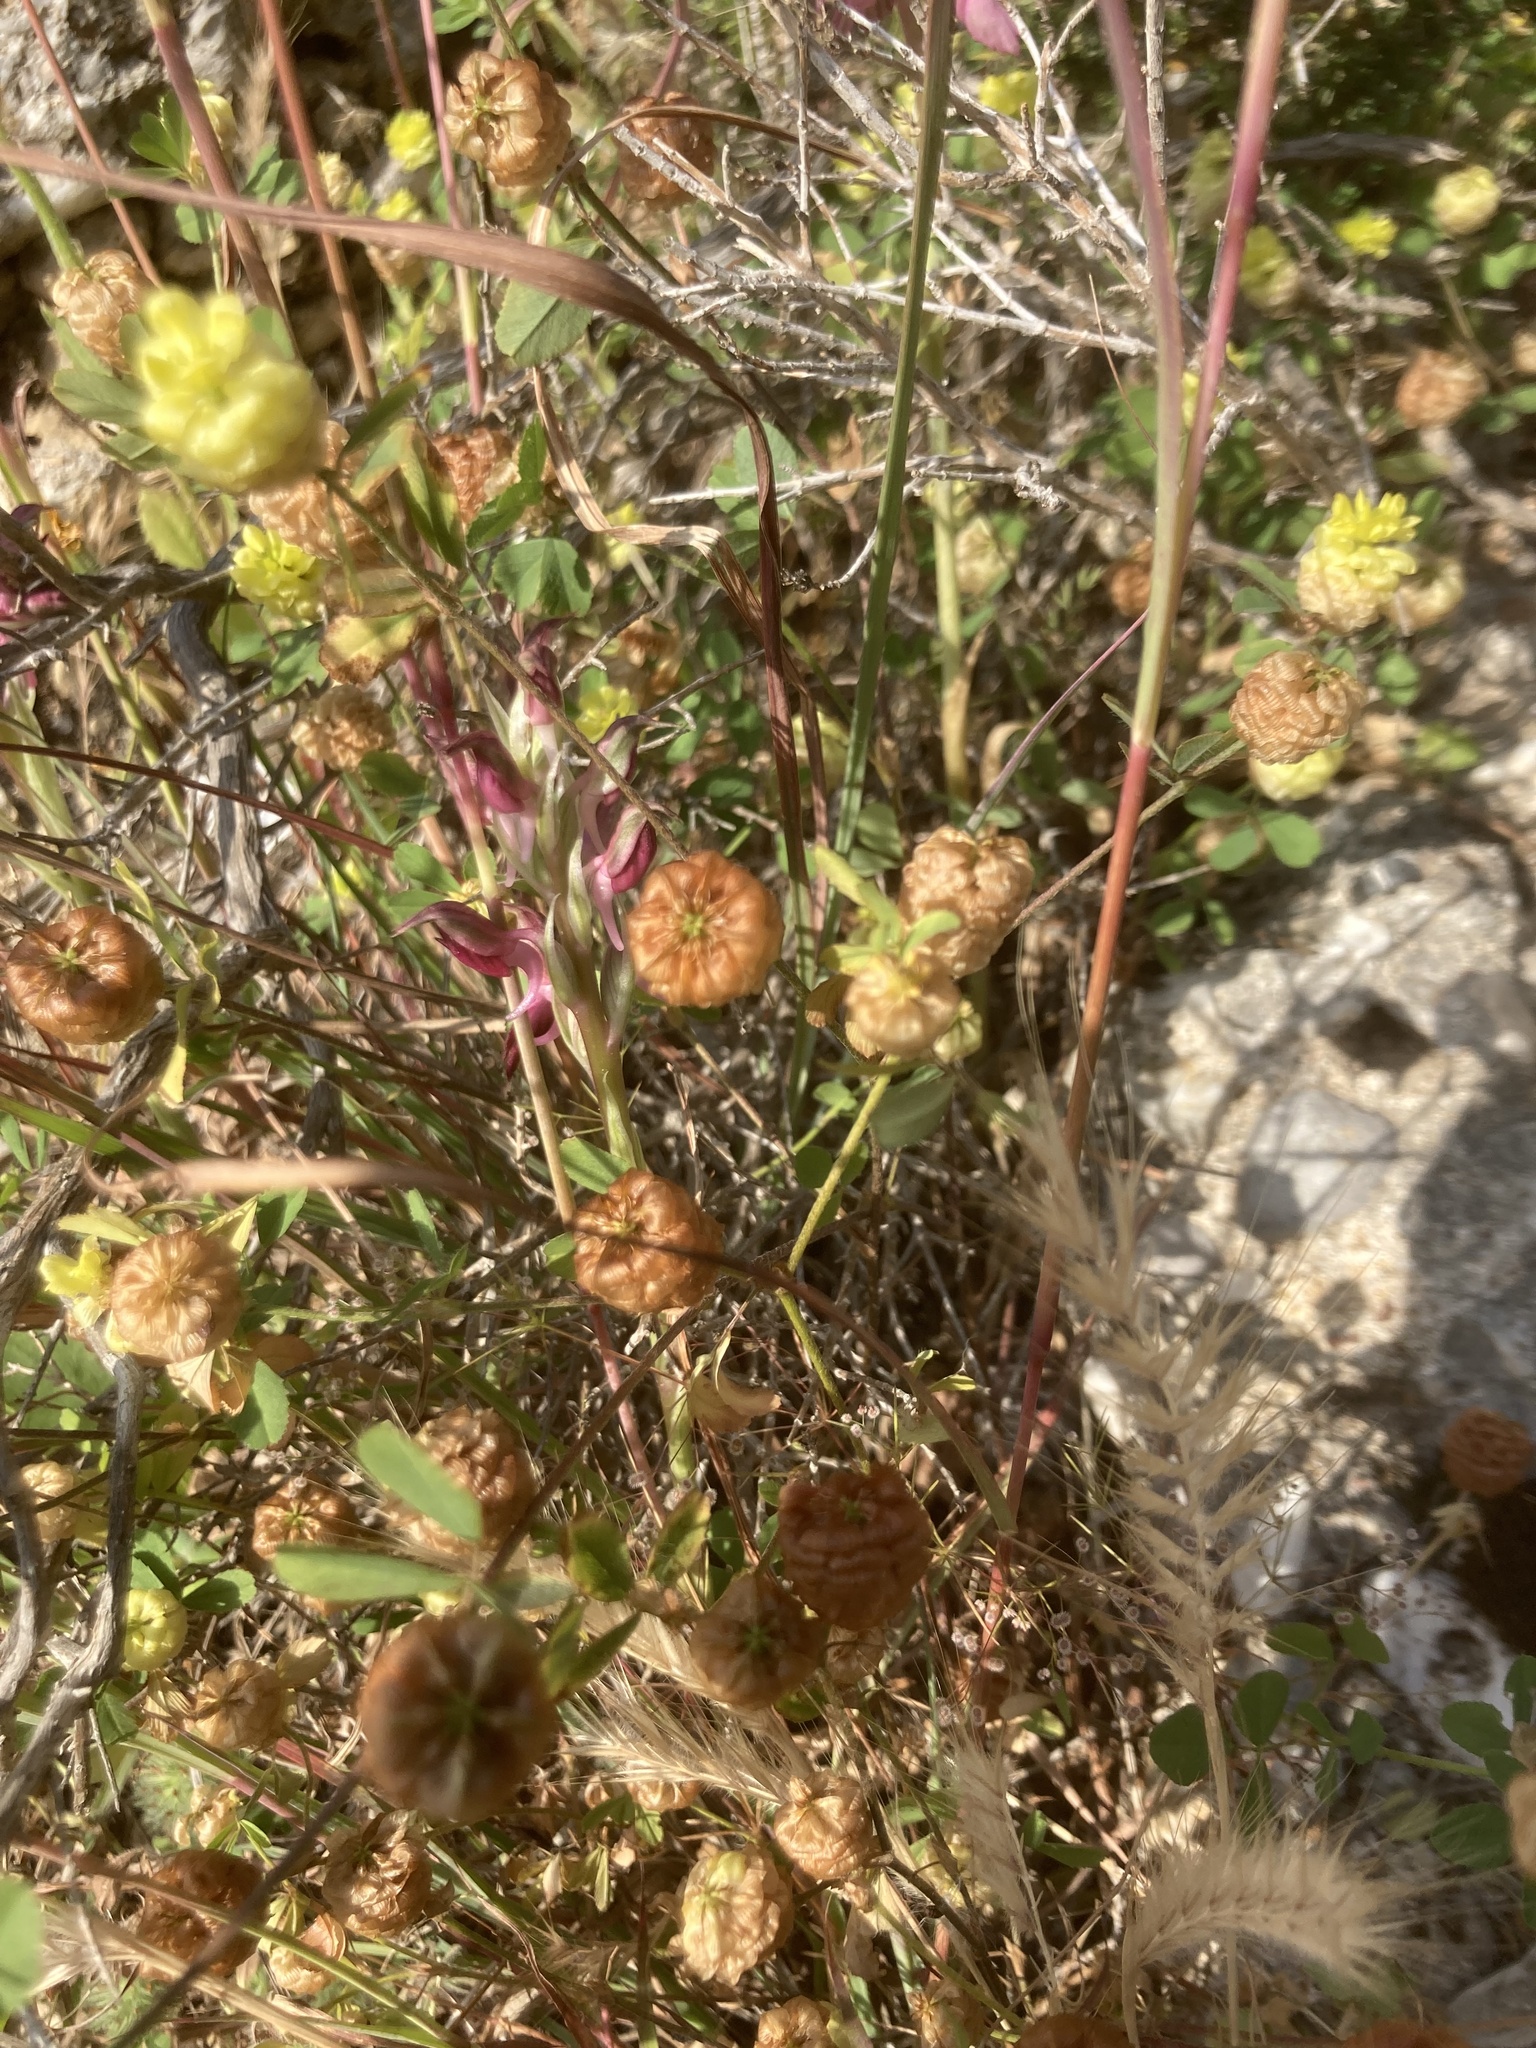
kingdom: Plantae
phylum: Tracheophyta
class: Magnoliopsida
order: Fabales
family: Fabaceae
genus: Trifolium
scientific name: Trifolium campestre
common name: Field clover
